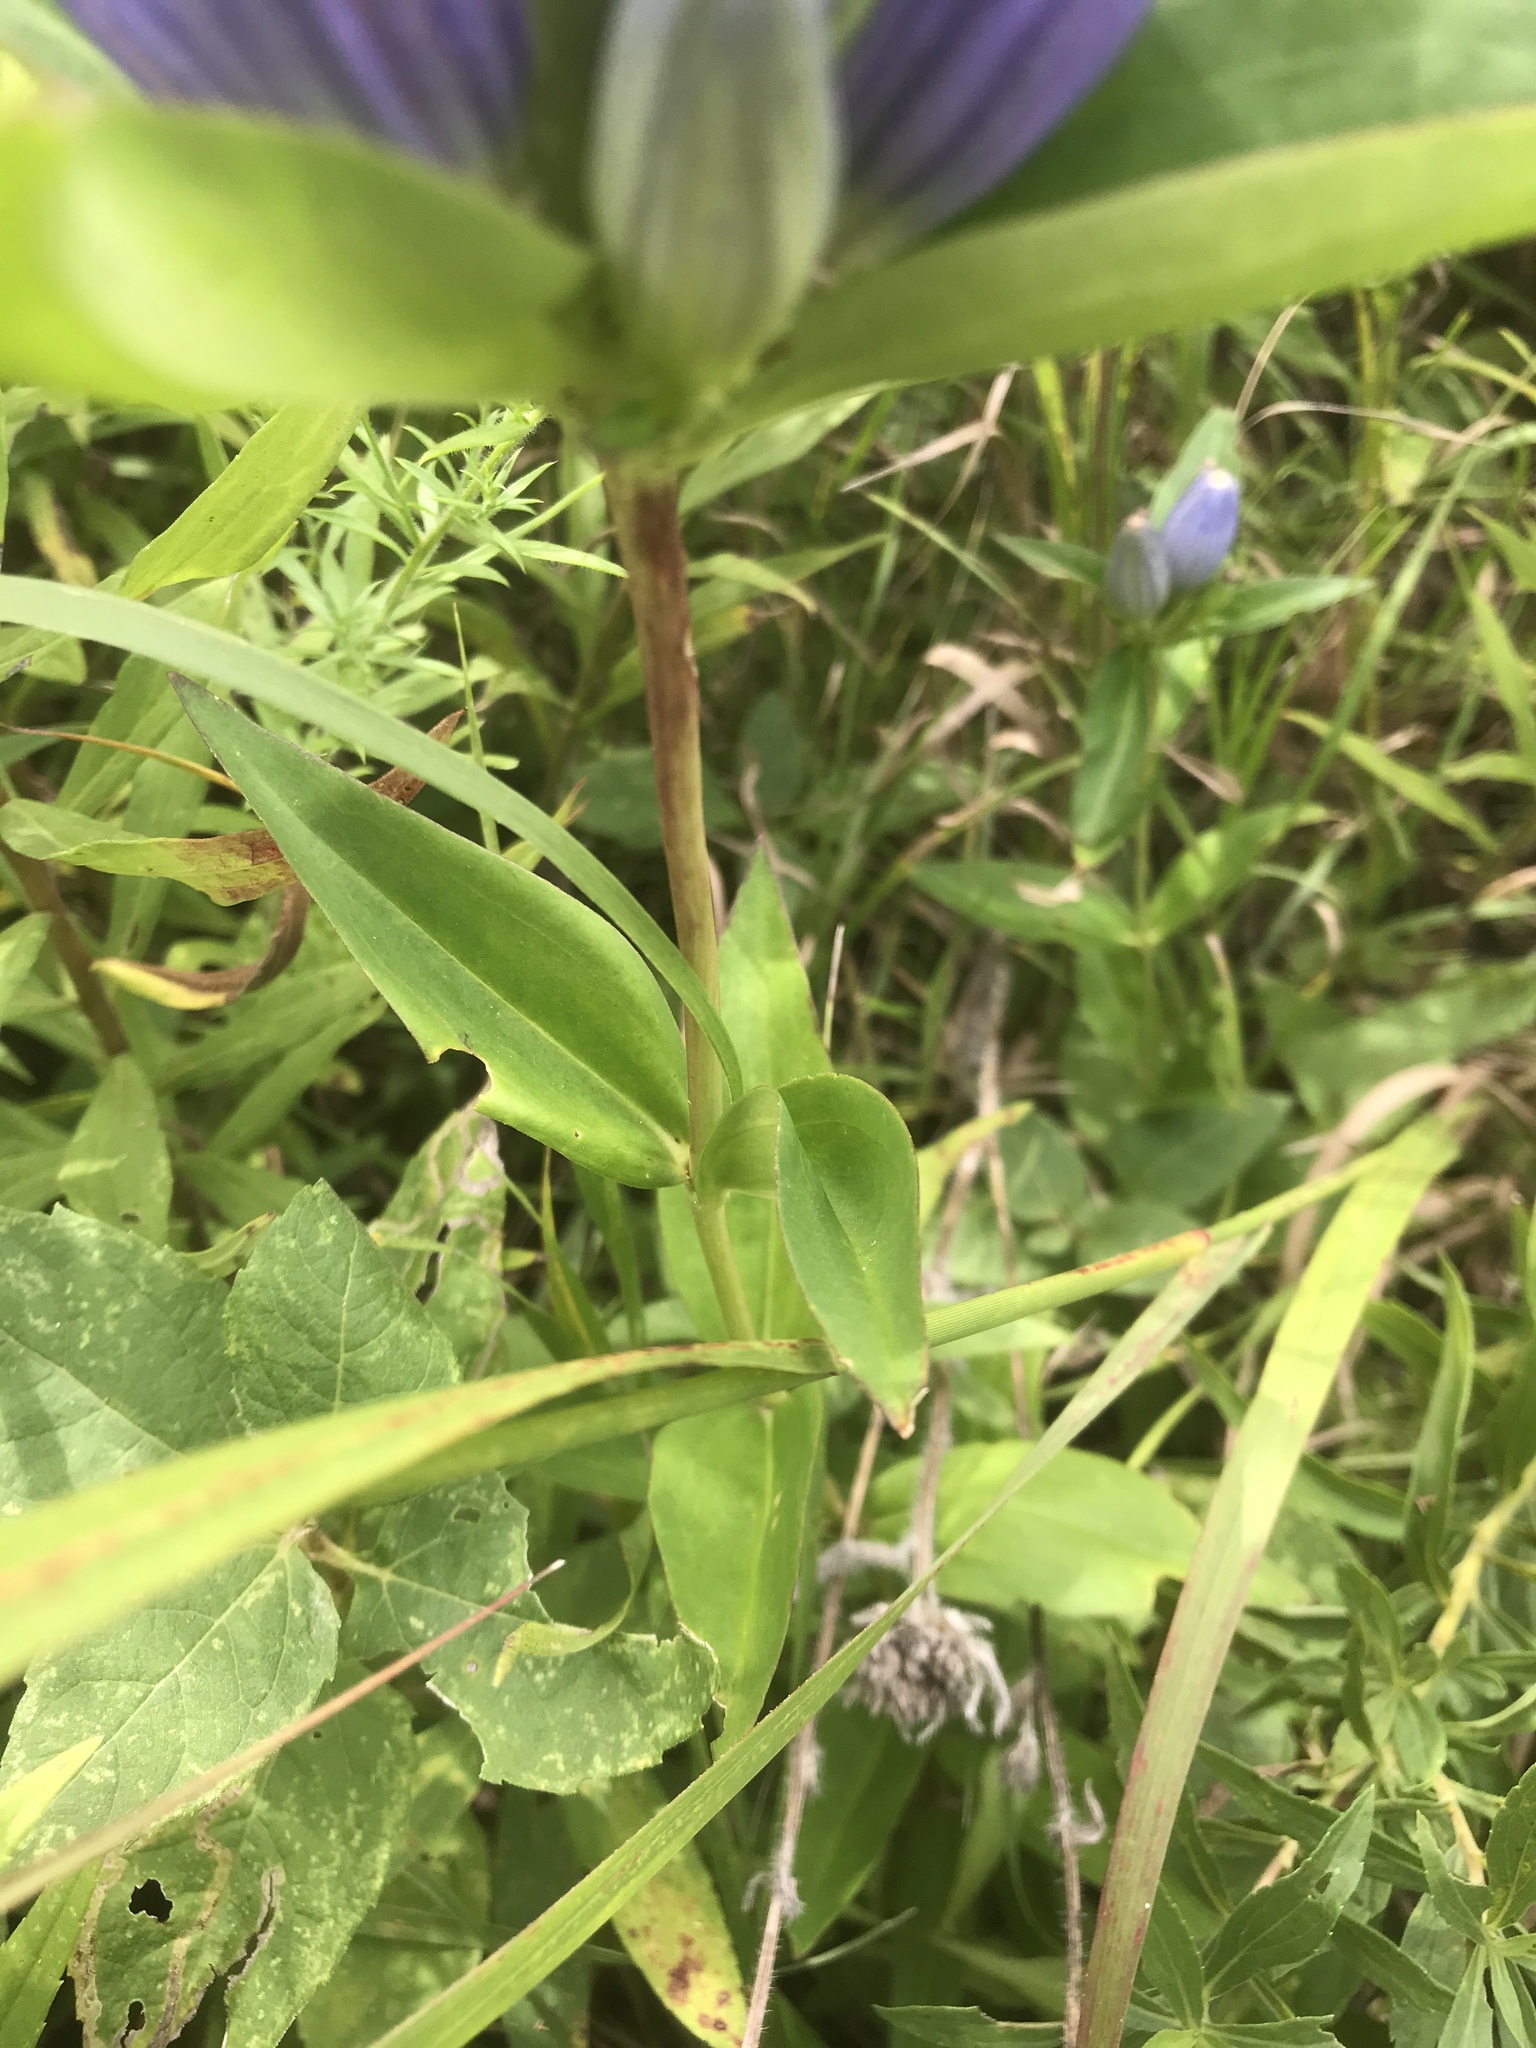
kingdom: Plantae
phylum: Tracheophyta
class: Magnoliopsida
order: Gentianales
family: Gentianaceae
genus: Gentiana
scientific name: Gentiana andrewsii
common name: Bottle gentian
